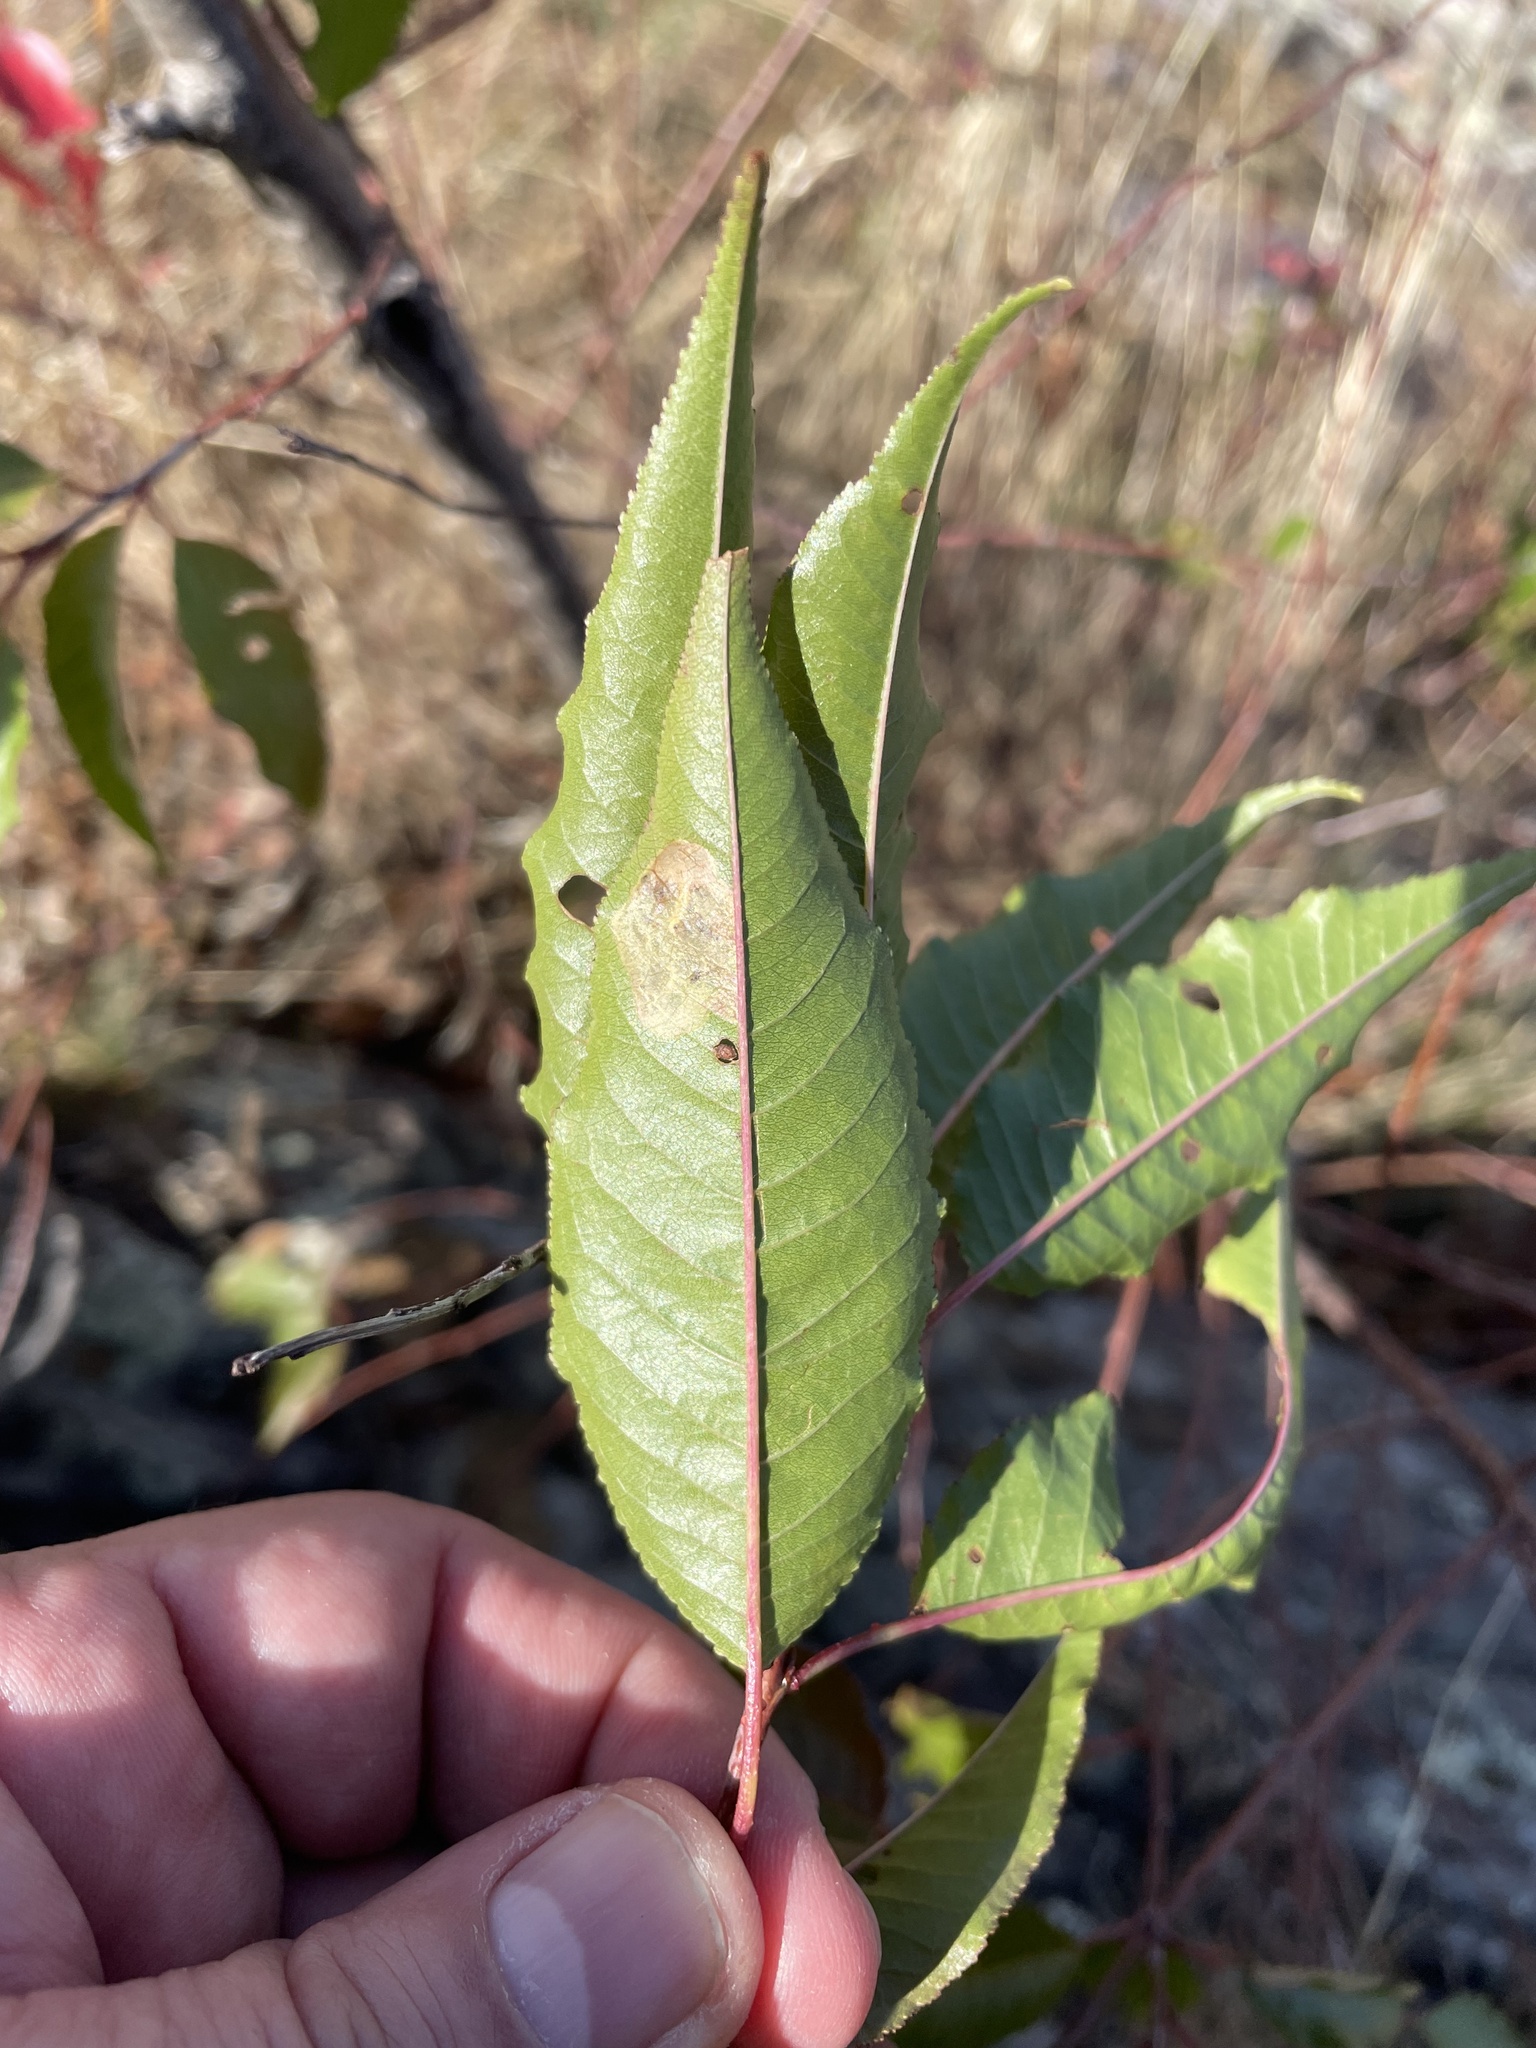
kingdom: Plantae
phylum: Tracheophyta
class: Magnoliopsida
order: Rosales
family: Rosaceae
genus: Prunus
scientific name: Prunus pensylvanica
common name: Pin cherry
